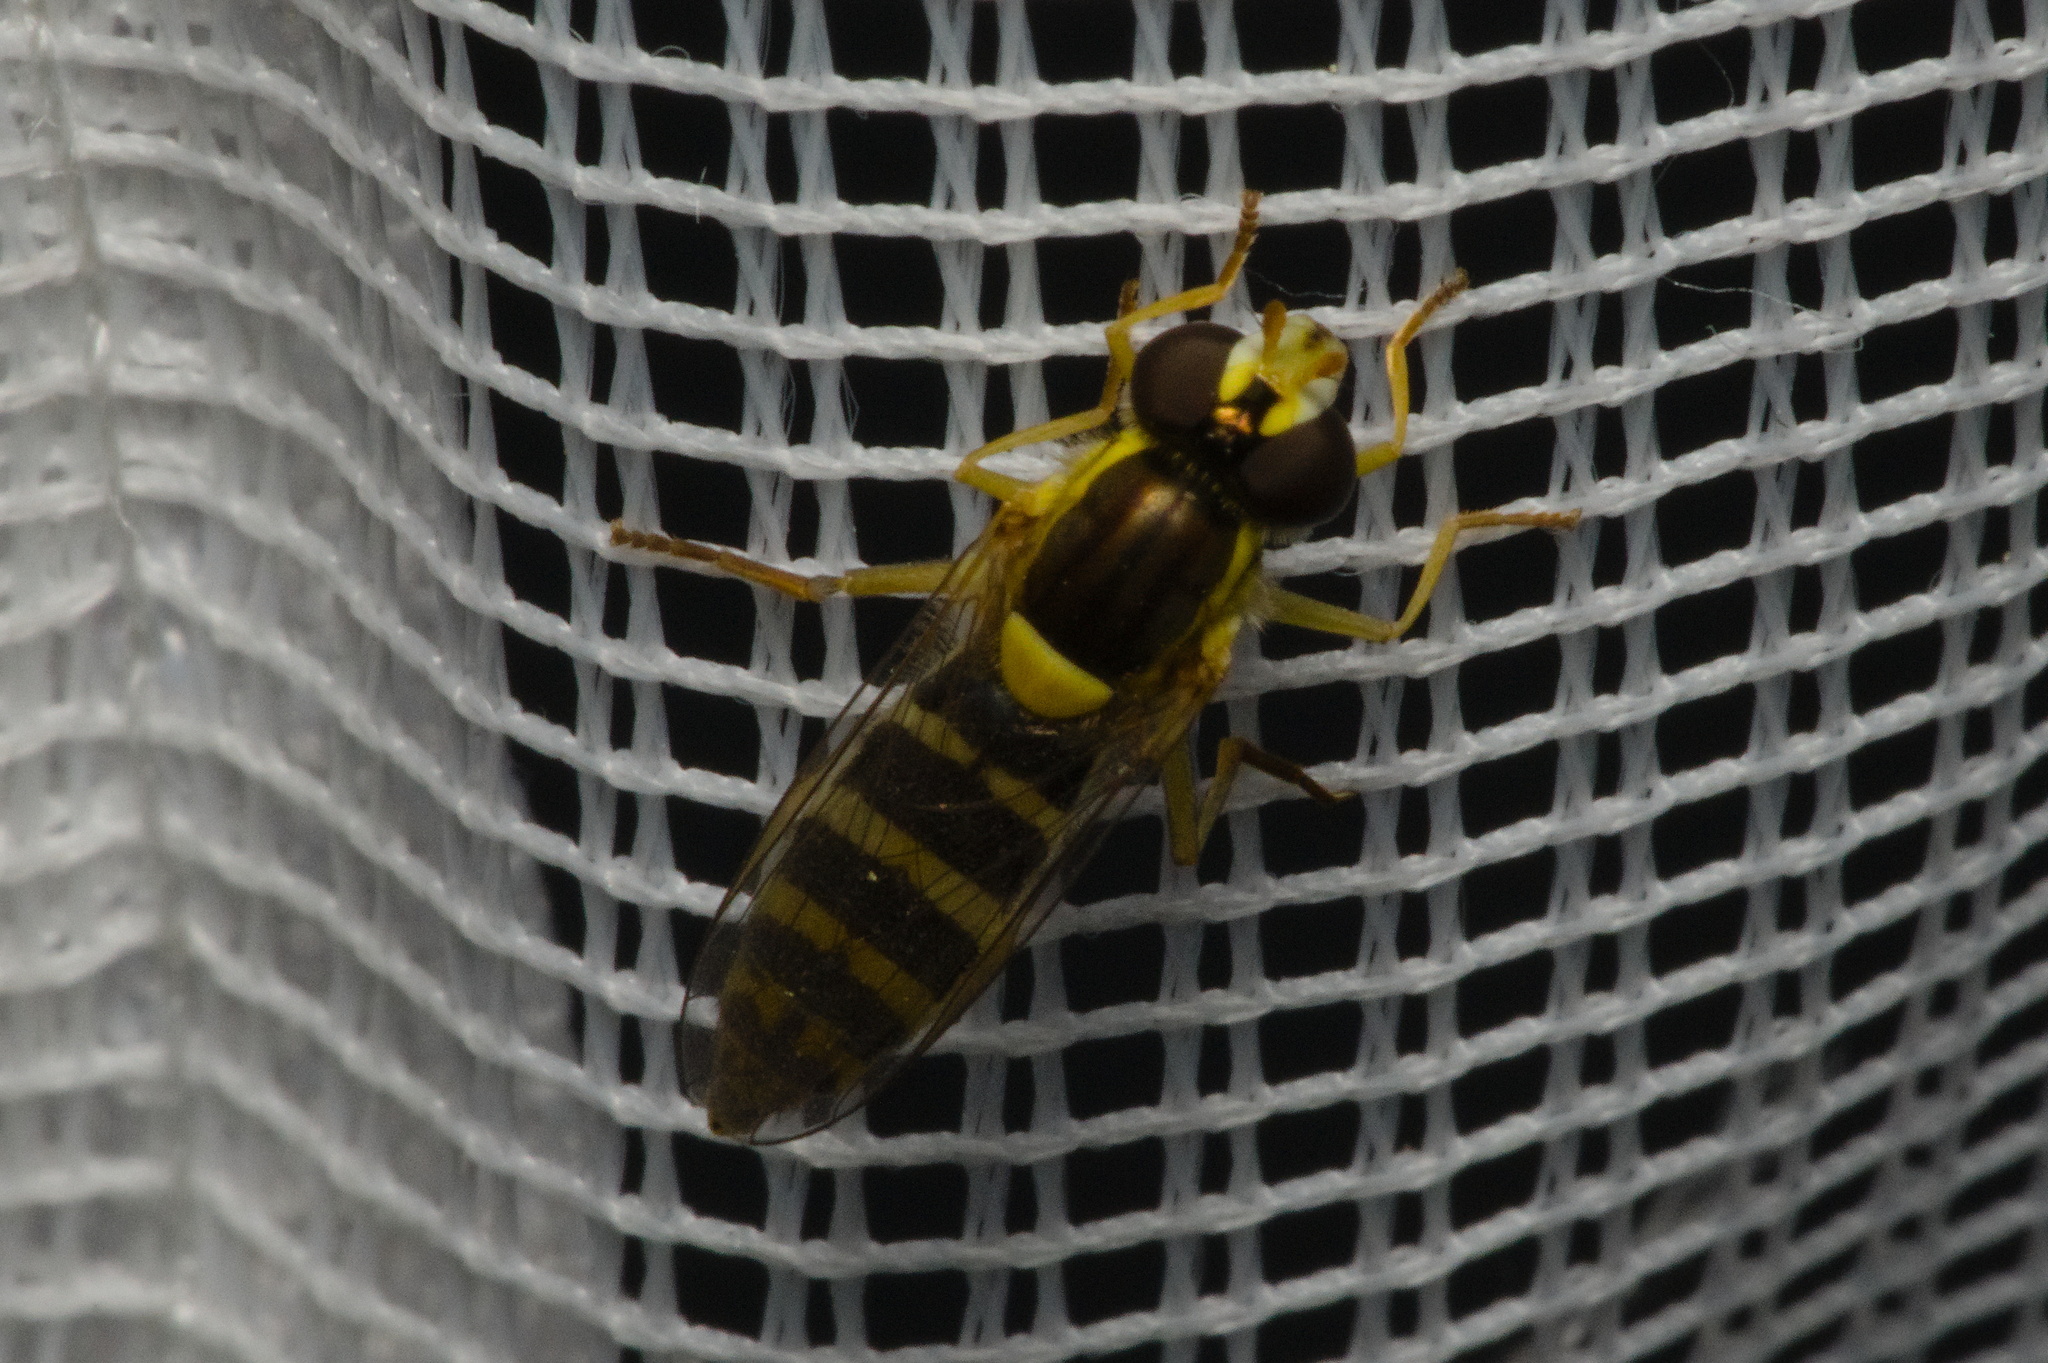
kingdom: Animalia
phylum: Arthropoda
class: Insecta
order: Diptera
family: Syrphidae
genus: Sphaerophoria
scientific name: Sphaerophoria
